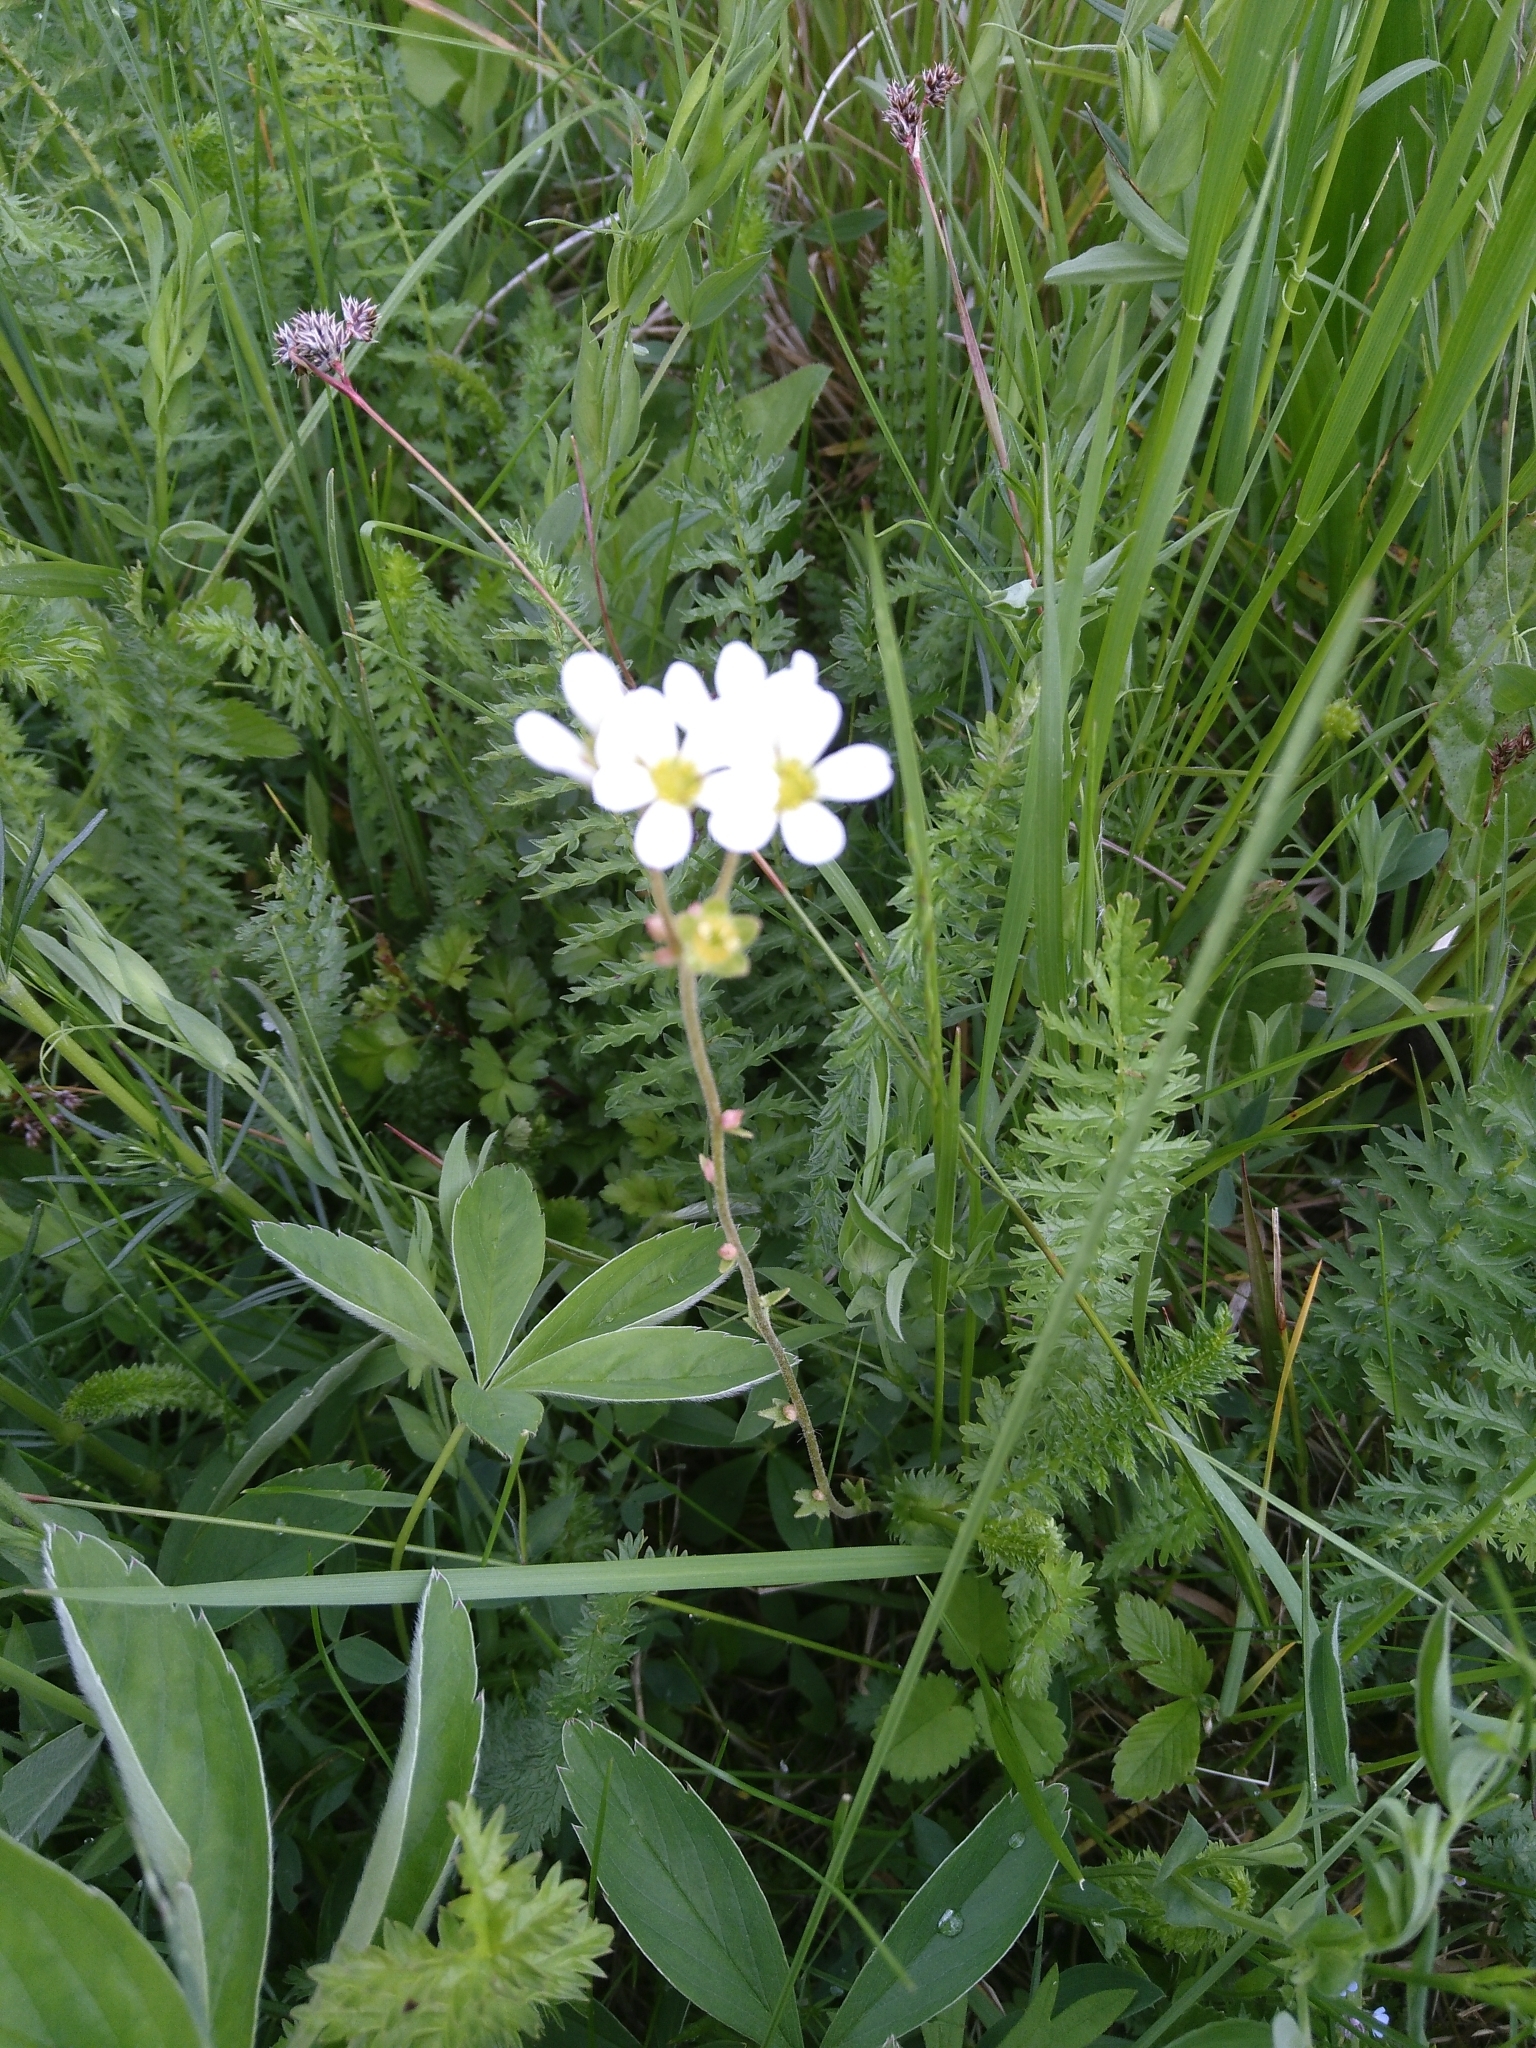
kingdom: Plantae
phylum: Tracheophyta
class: Magnoliopsida
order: Saxifragales
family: Saxifragaceae
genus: Saxifraga
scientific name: Saxifraga bulbifera
